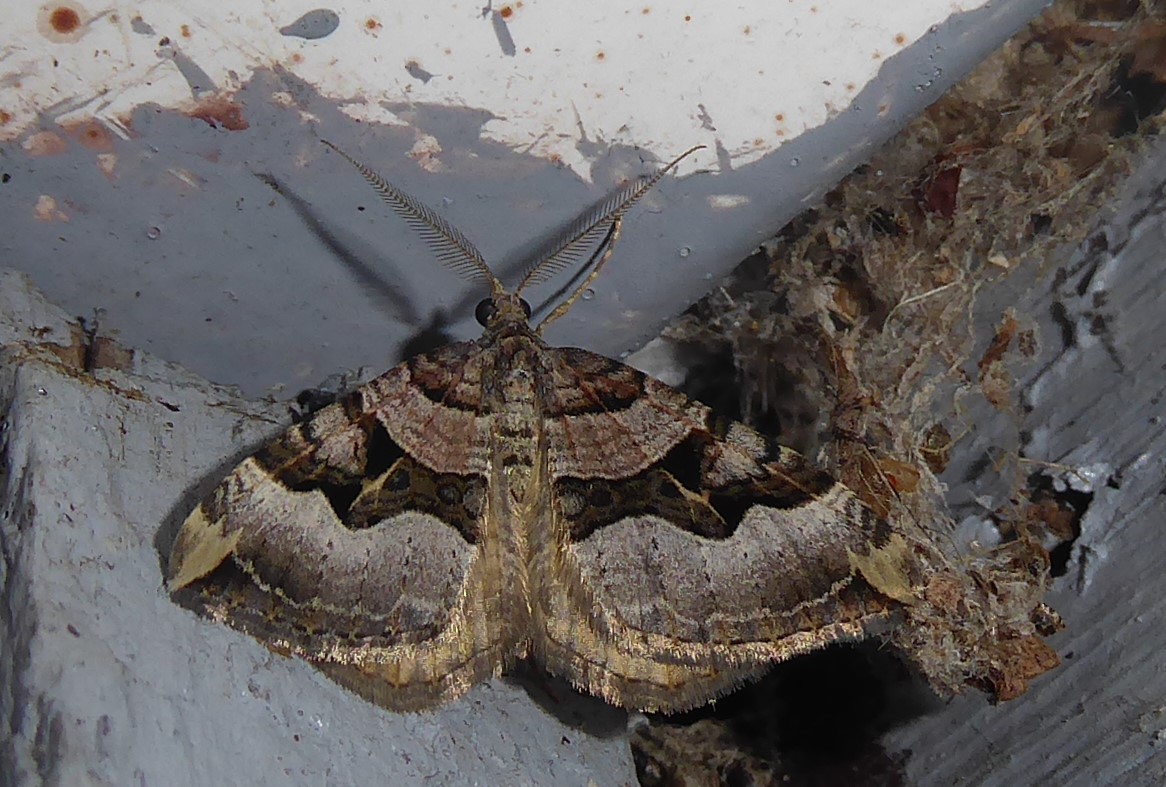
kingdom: Animalia
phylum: Arthropoda
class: Insecta
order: Lepidoptera
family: Geometridae
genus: Xanthorhoe
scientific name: Xanthorhoe semifissata
